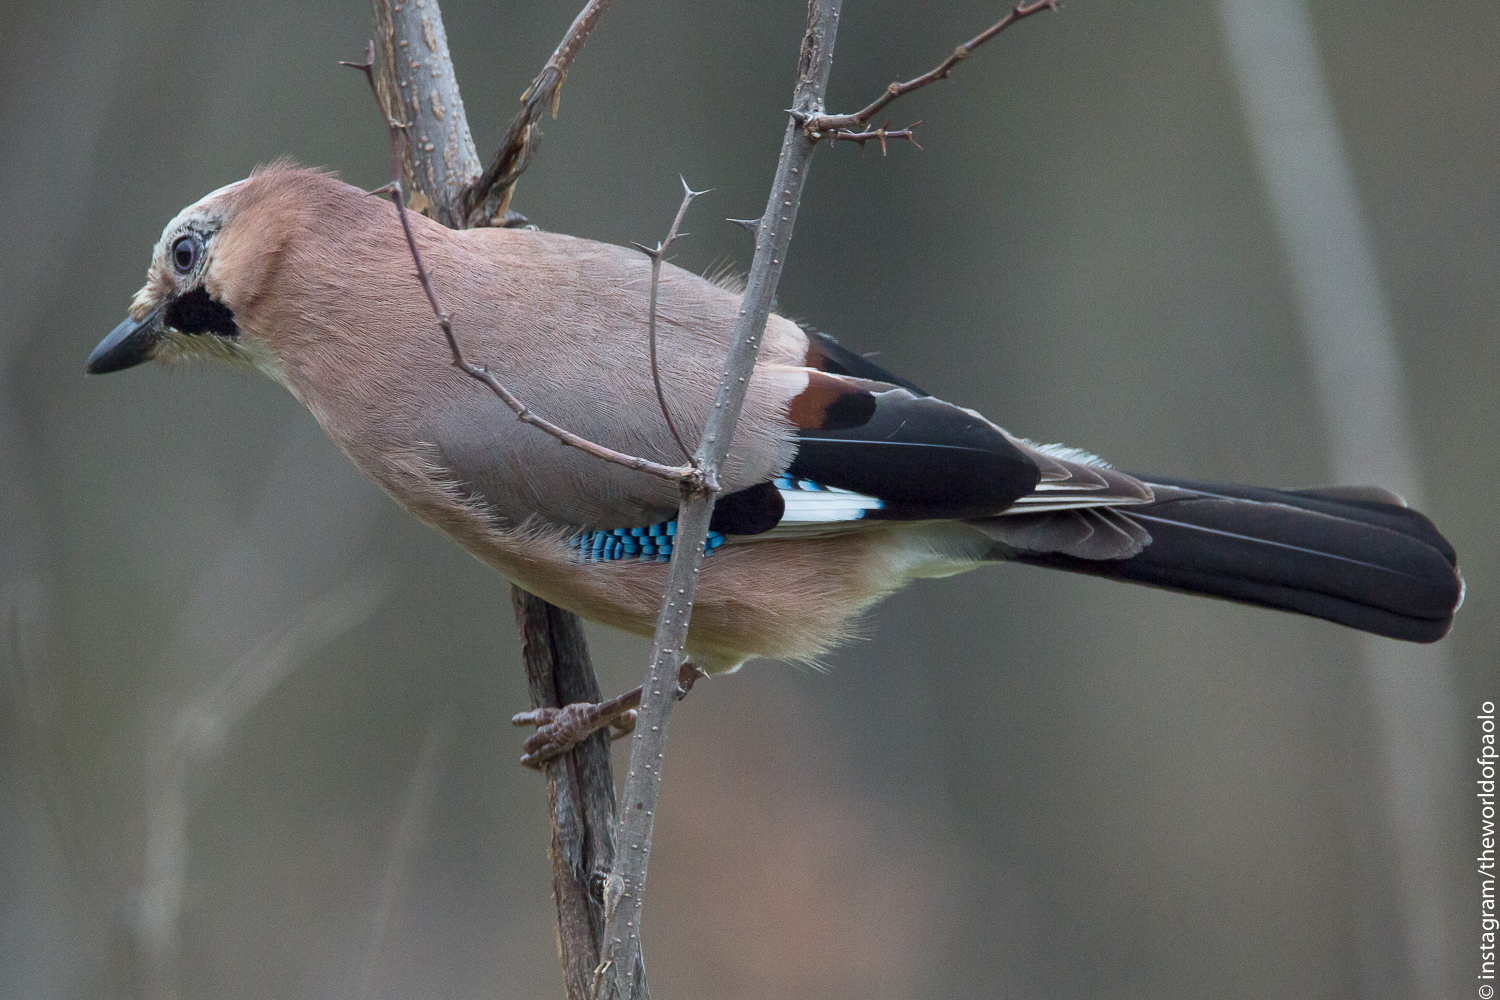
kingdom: Animalia
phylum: Chordata
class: Aves
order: Passeriformes
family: Corvidae
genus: Garrulus
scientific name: Garrulus glandarius
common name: Eurasian jay
